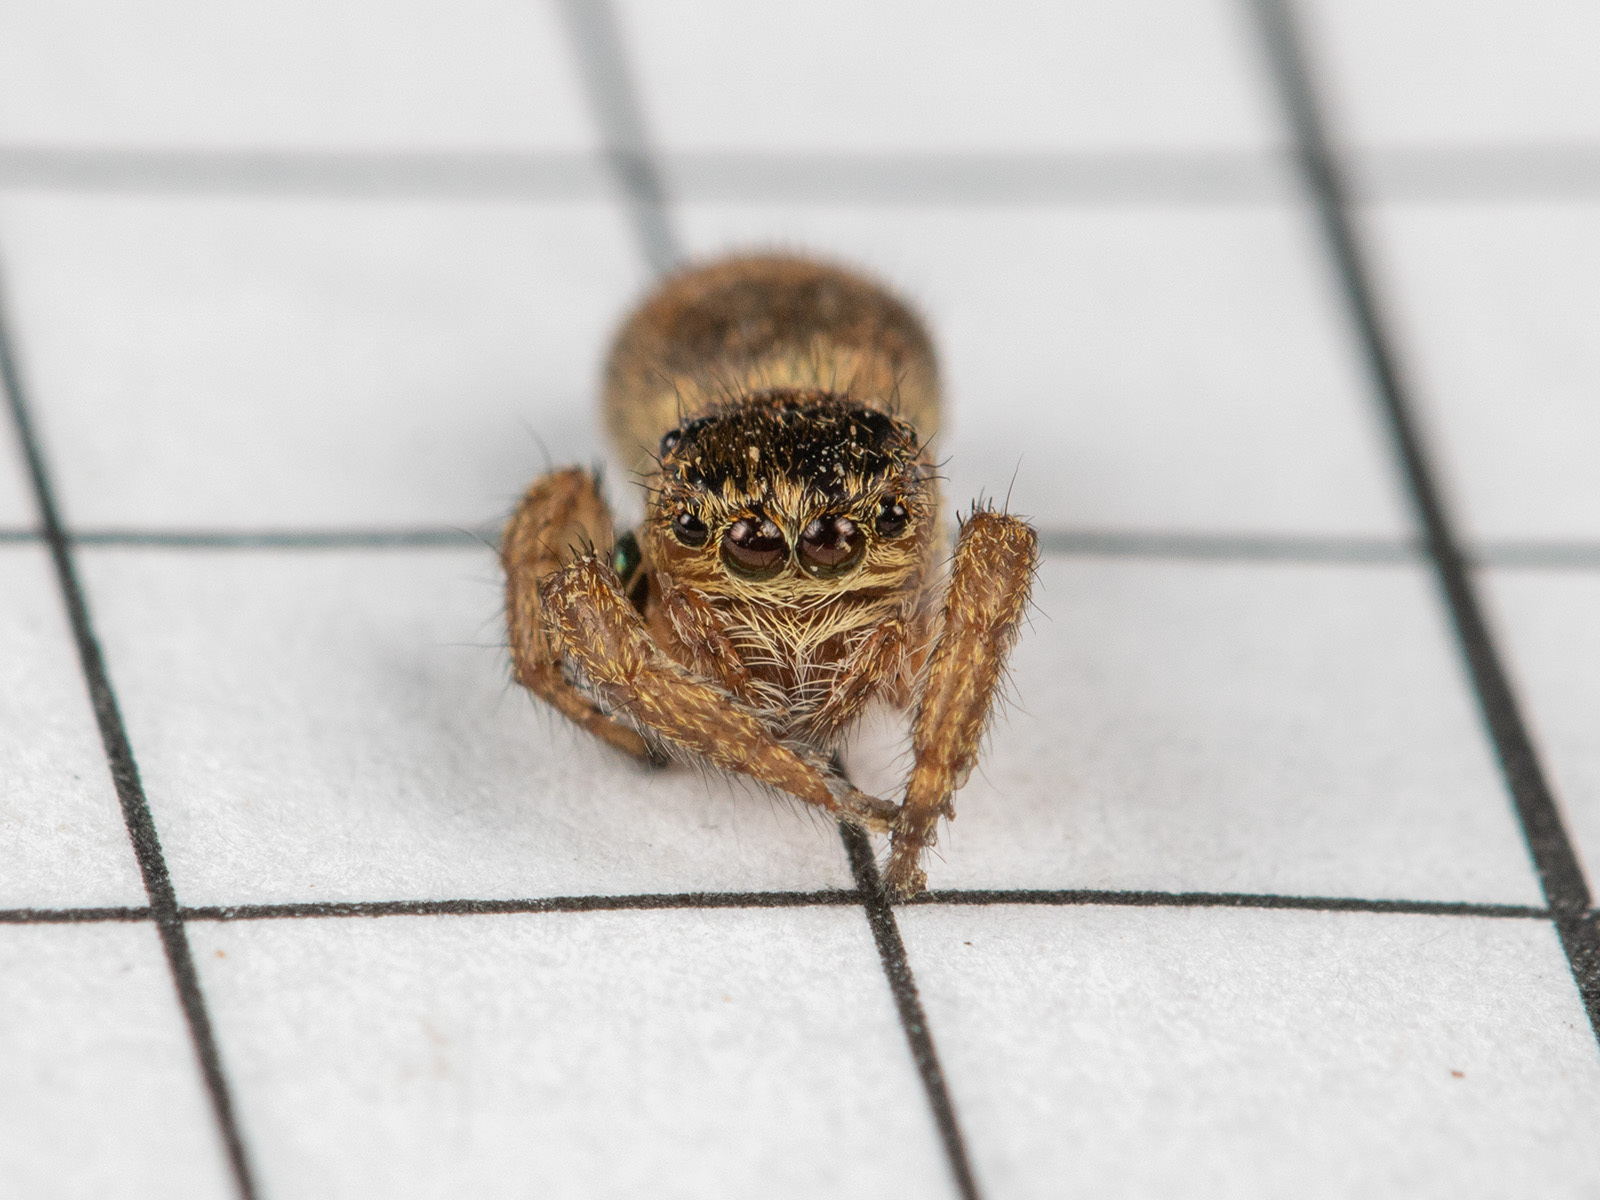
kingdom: Animalia
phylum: Arthropoda
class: Arachnida
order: Araneae
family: Salticidae
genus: Evarcha
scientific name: Evarcha arcuata
